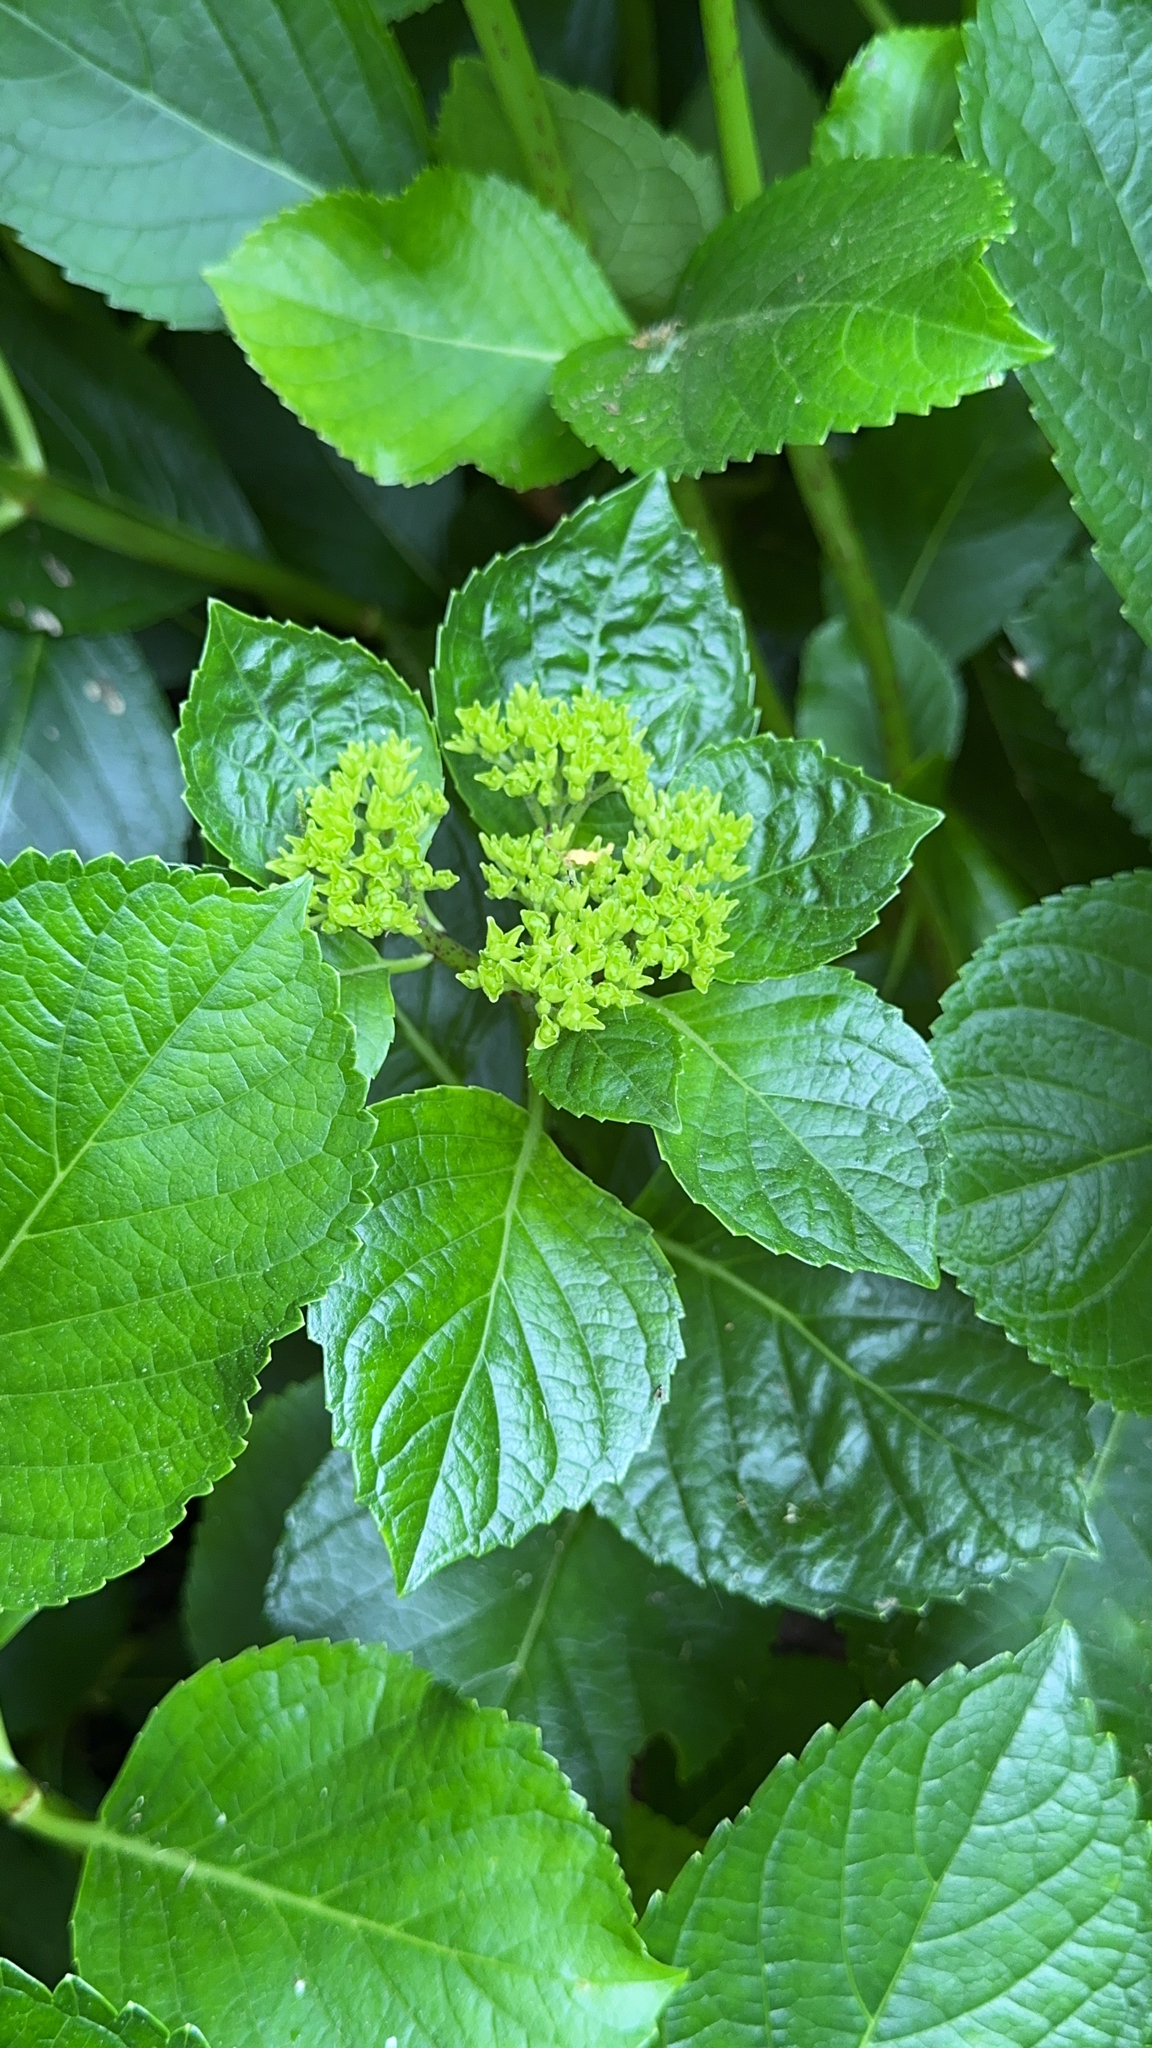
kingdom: Plantae
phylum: Tracheophyta
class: Magnoliopsida
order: Cornales
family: Hydrangeaceae
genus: Hydrangea
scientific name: Hydrangea macrophylla
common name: Hydrangea
